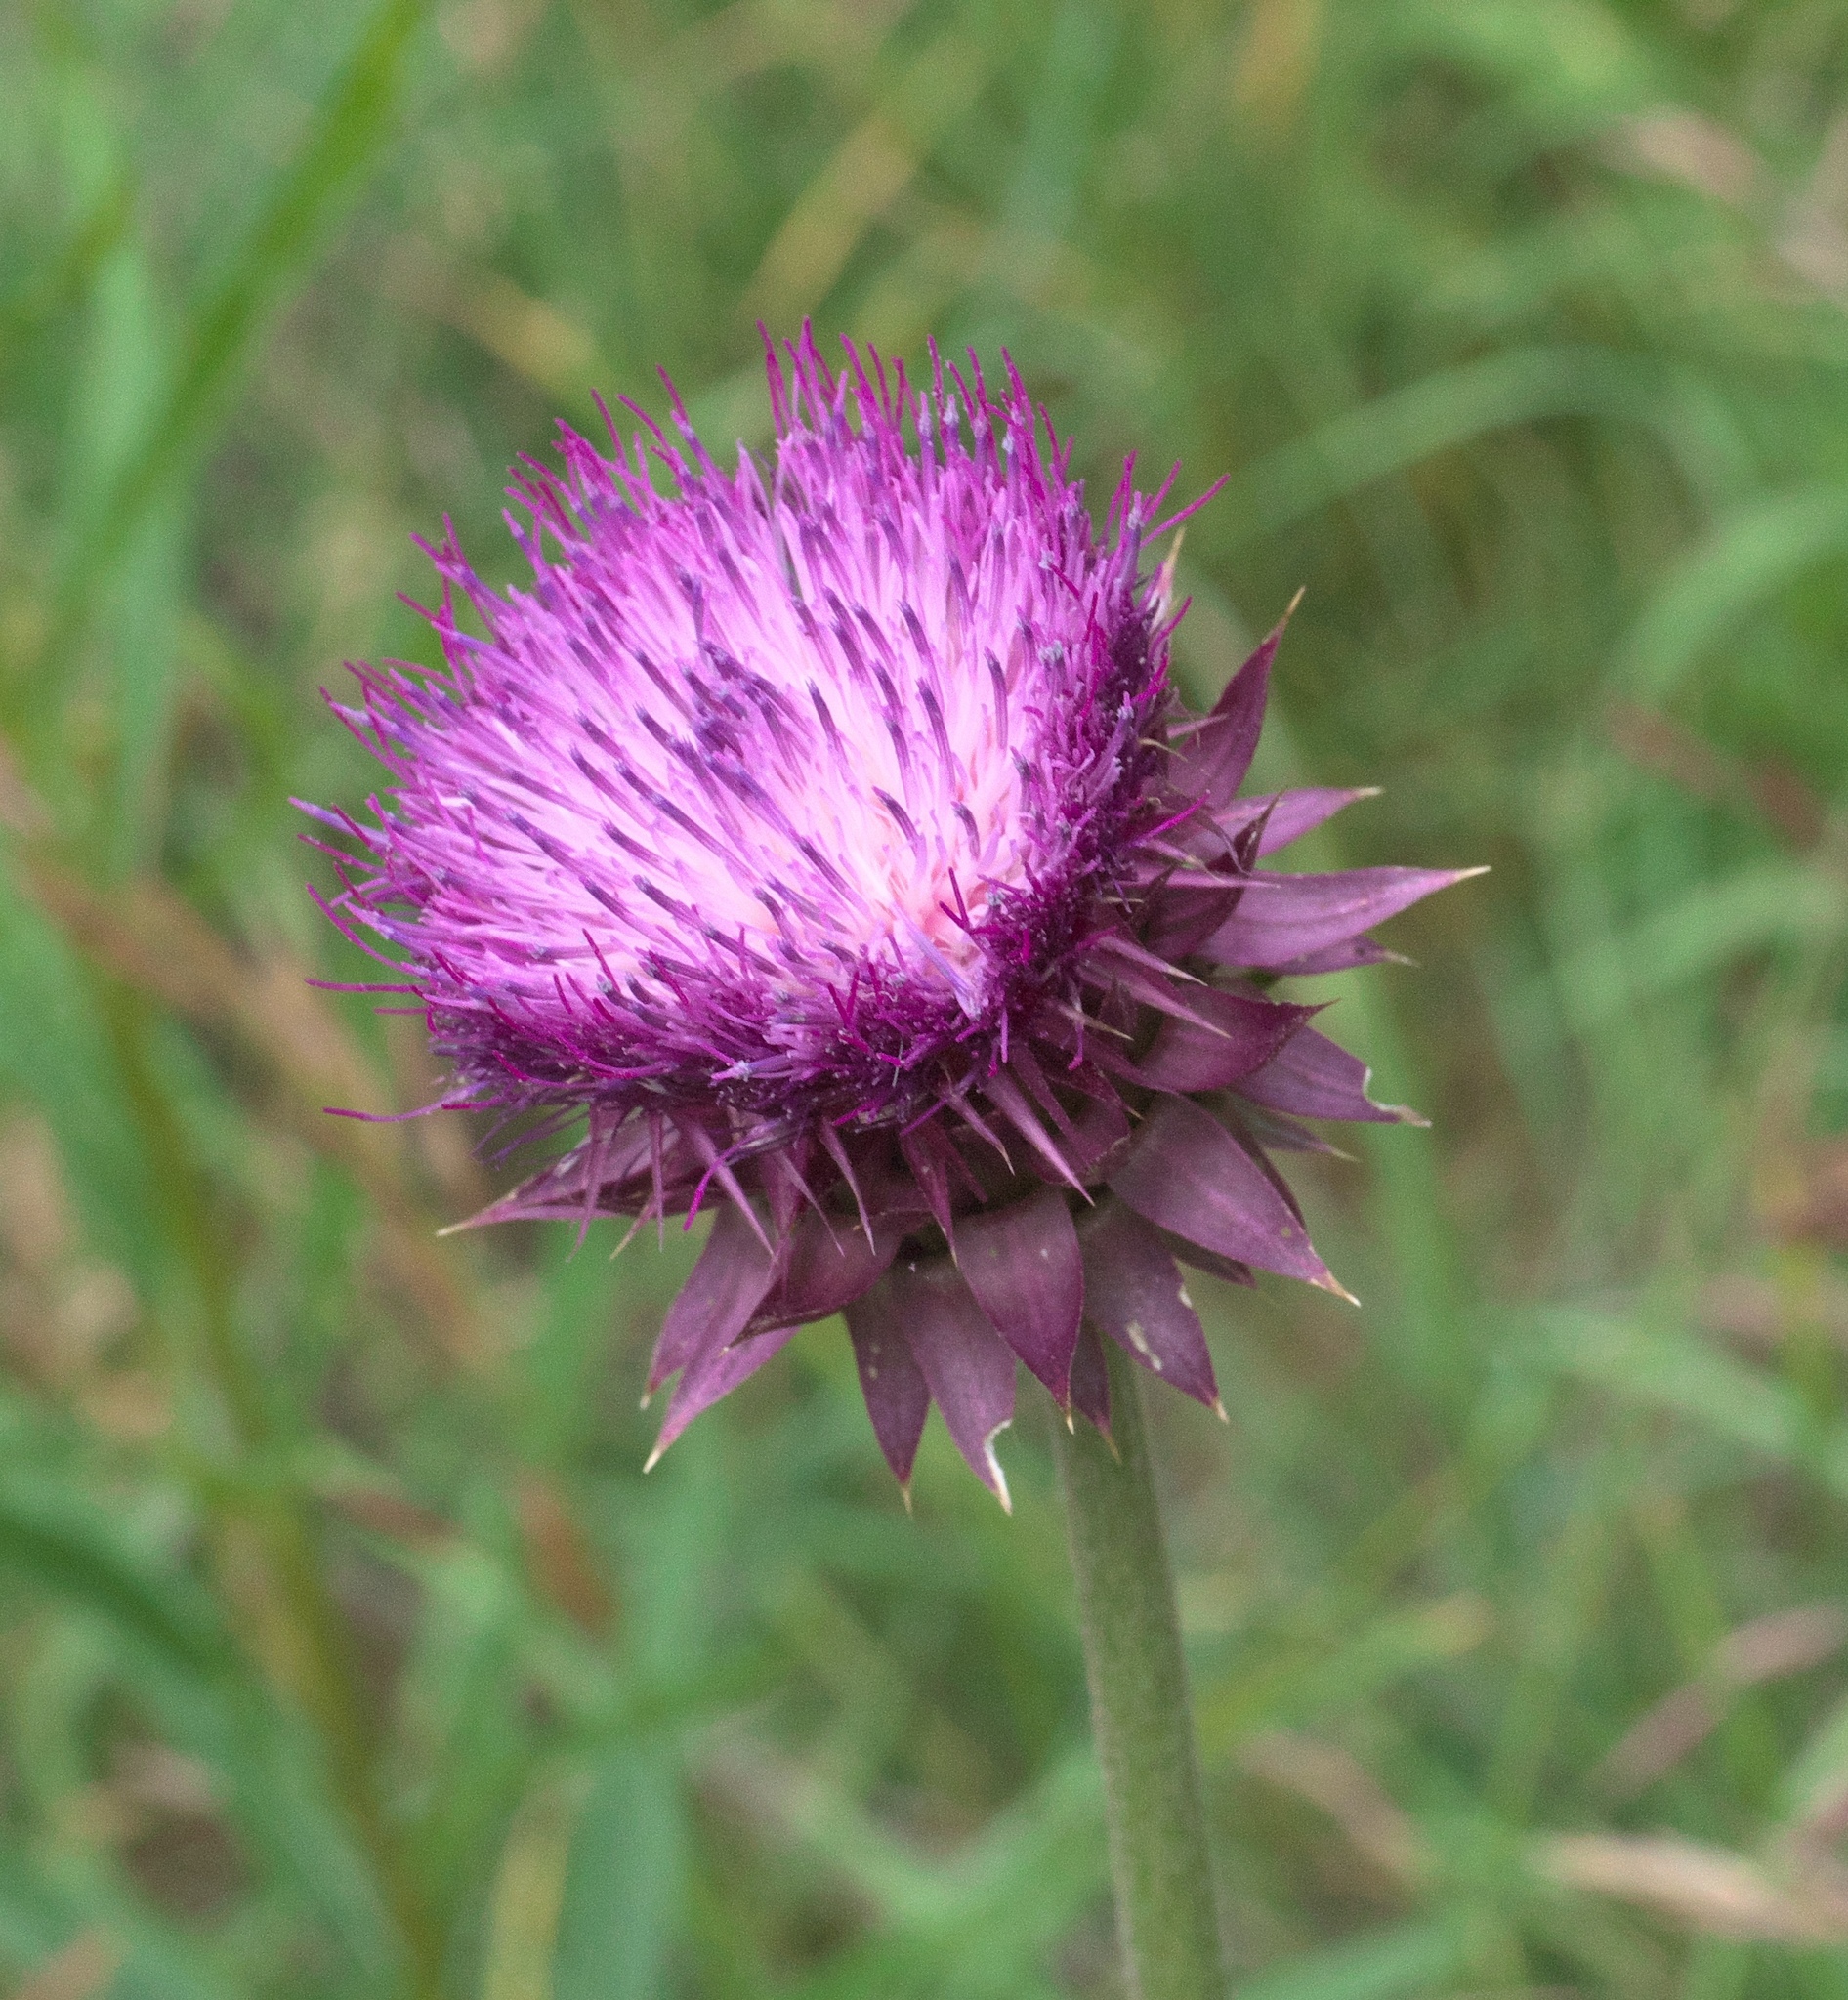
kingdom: Plantae
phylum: Tracheophyta
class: Magnoliopsida
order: Asterales
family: Asteraceae
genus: Carduus
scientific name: Carduus nutans
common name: Musk thistle
